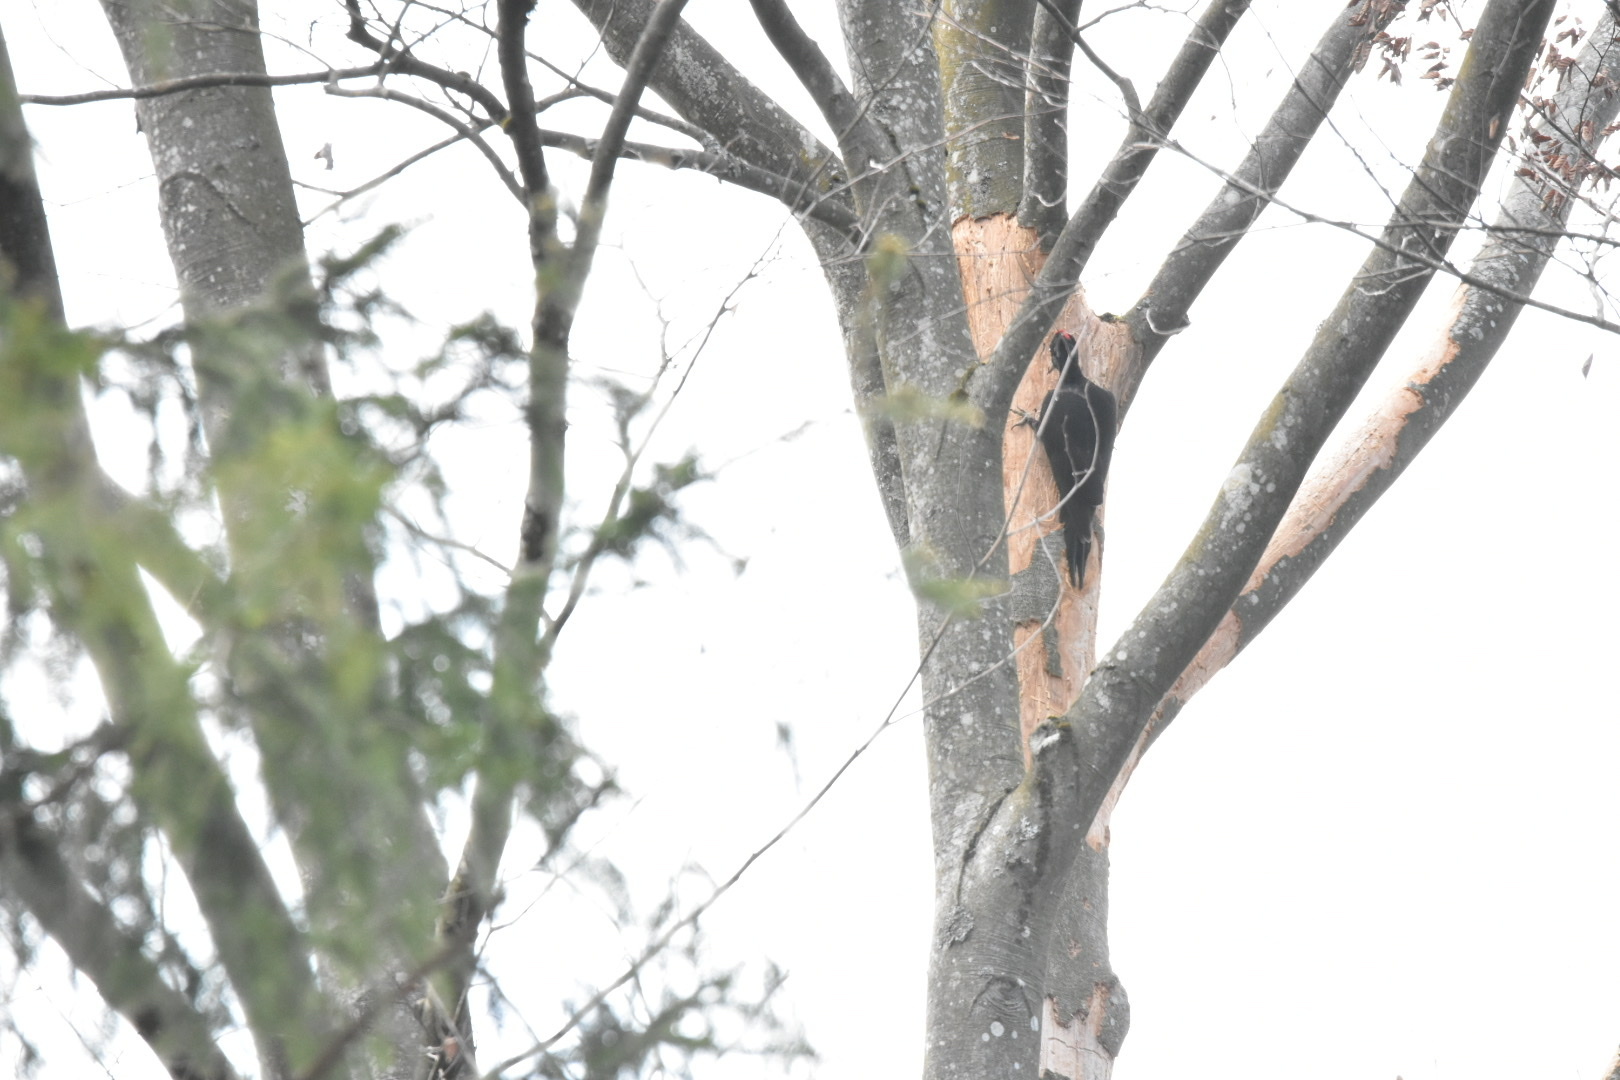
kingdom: Animalia
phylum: Chordata
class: Aves
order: Piciformes
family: Picidae
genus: Dryocopus
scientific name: Dryocopus martius
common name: Black woodpecker
